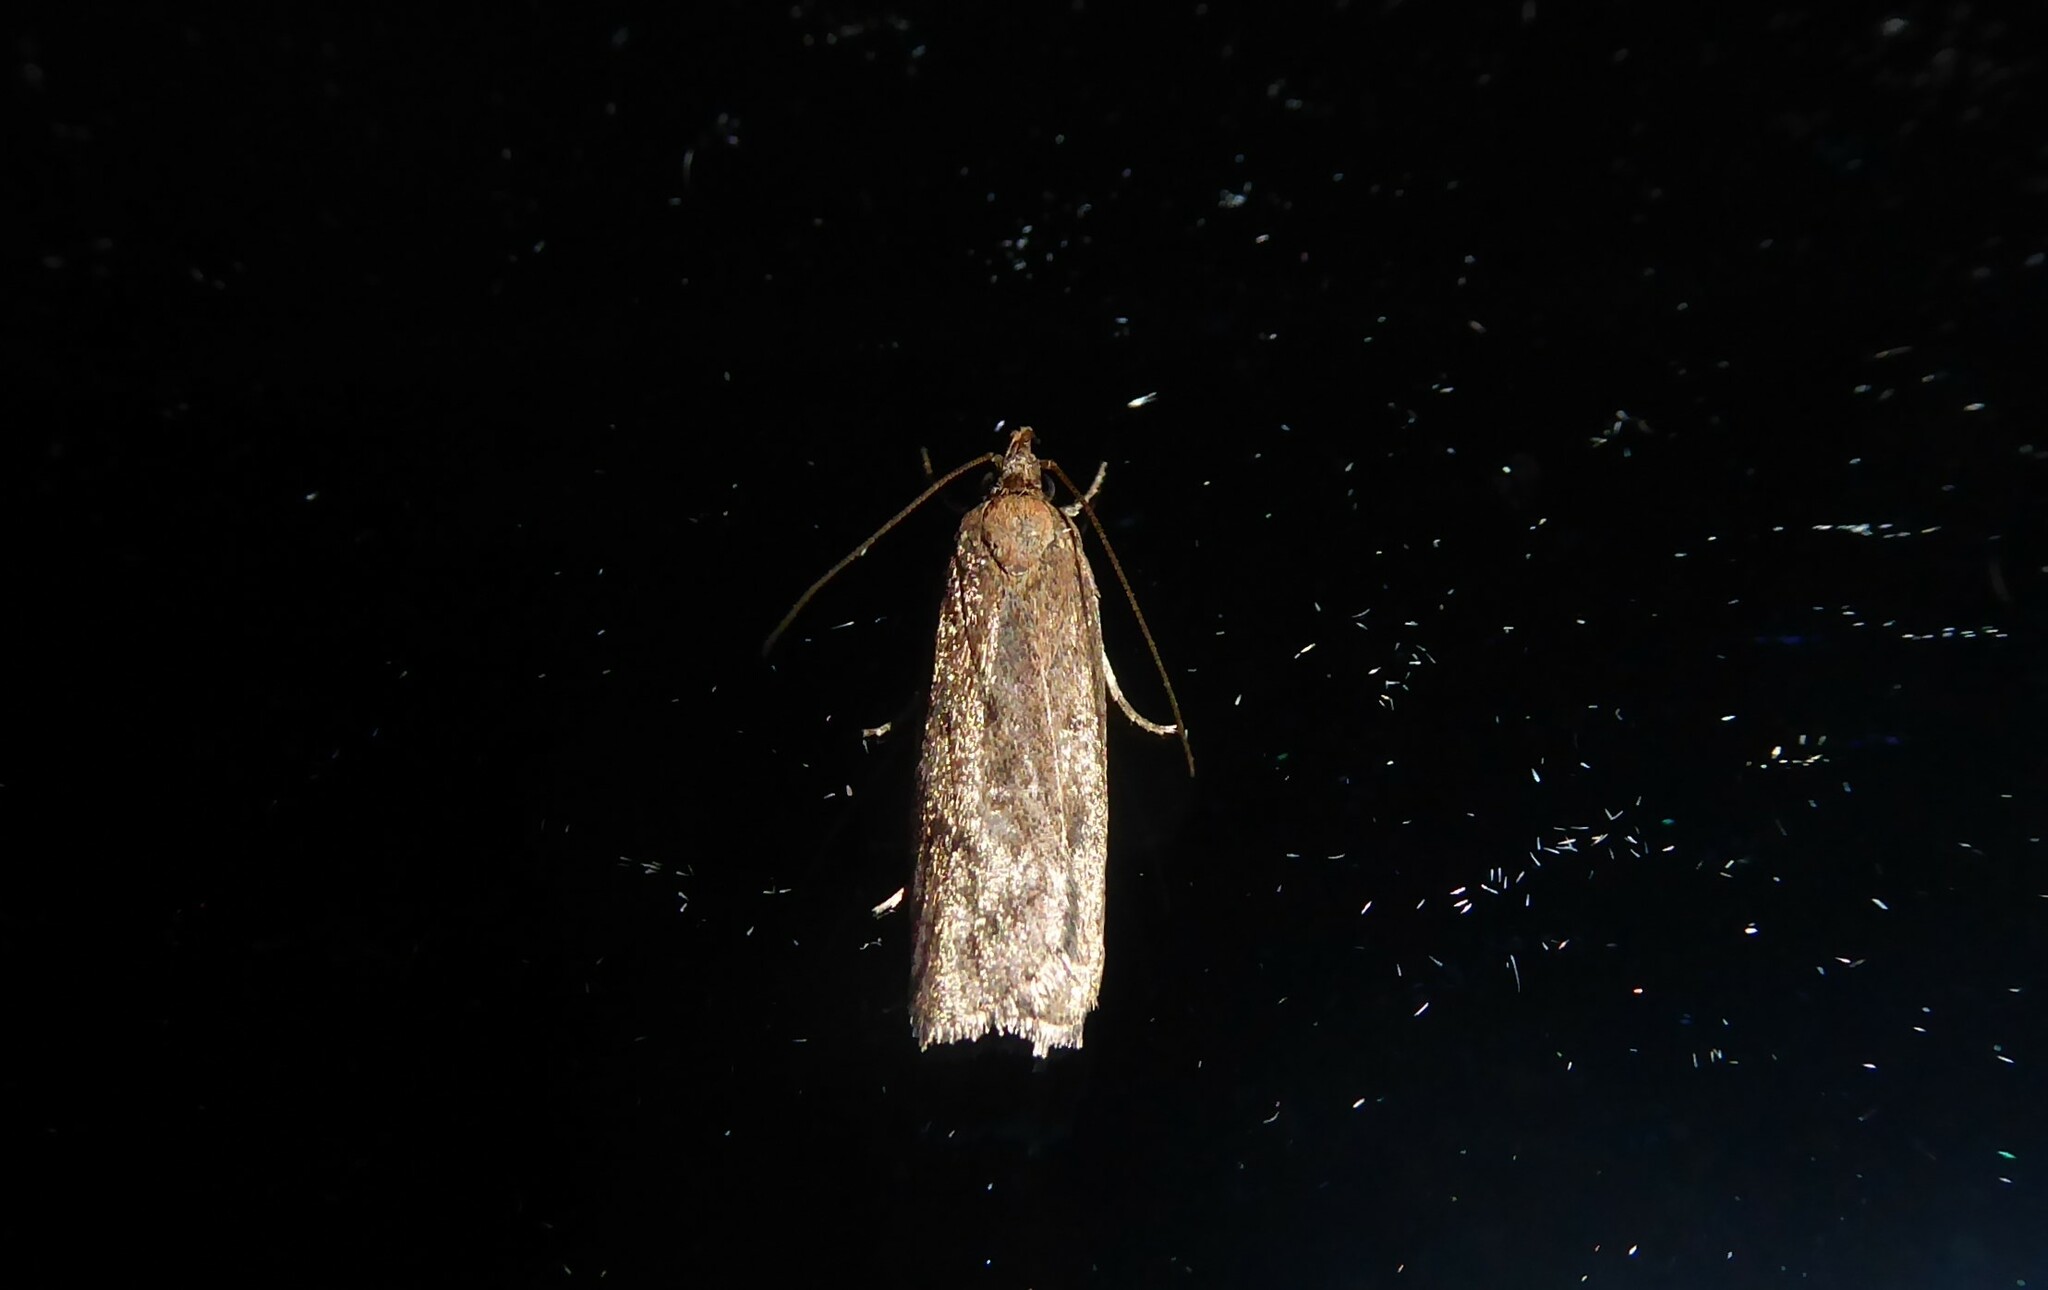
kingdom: Animalia
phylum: Arthropoda
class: Insecta
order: Lepidoptera
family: Depressariidae
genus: Phaeosaces
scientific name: Phaeosaces apocrypta
